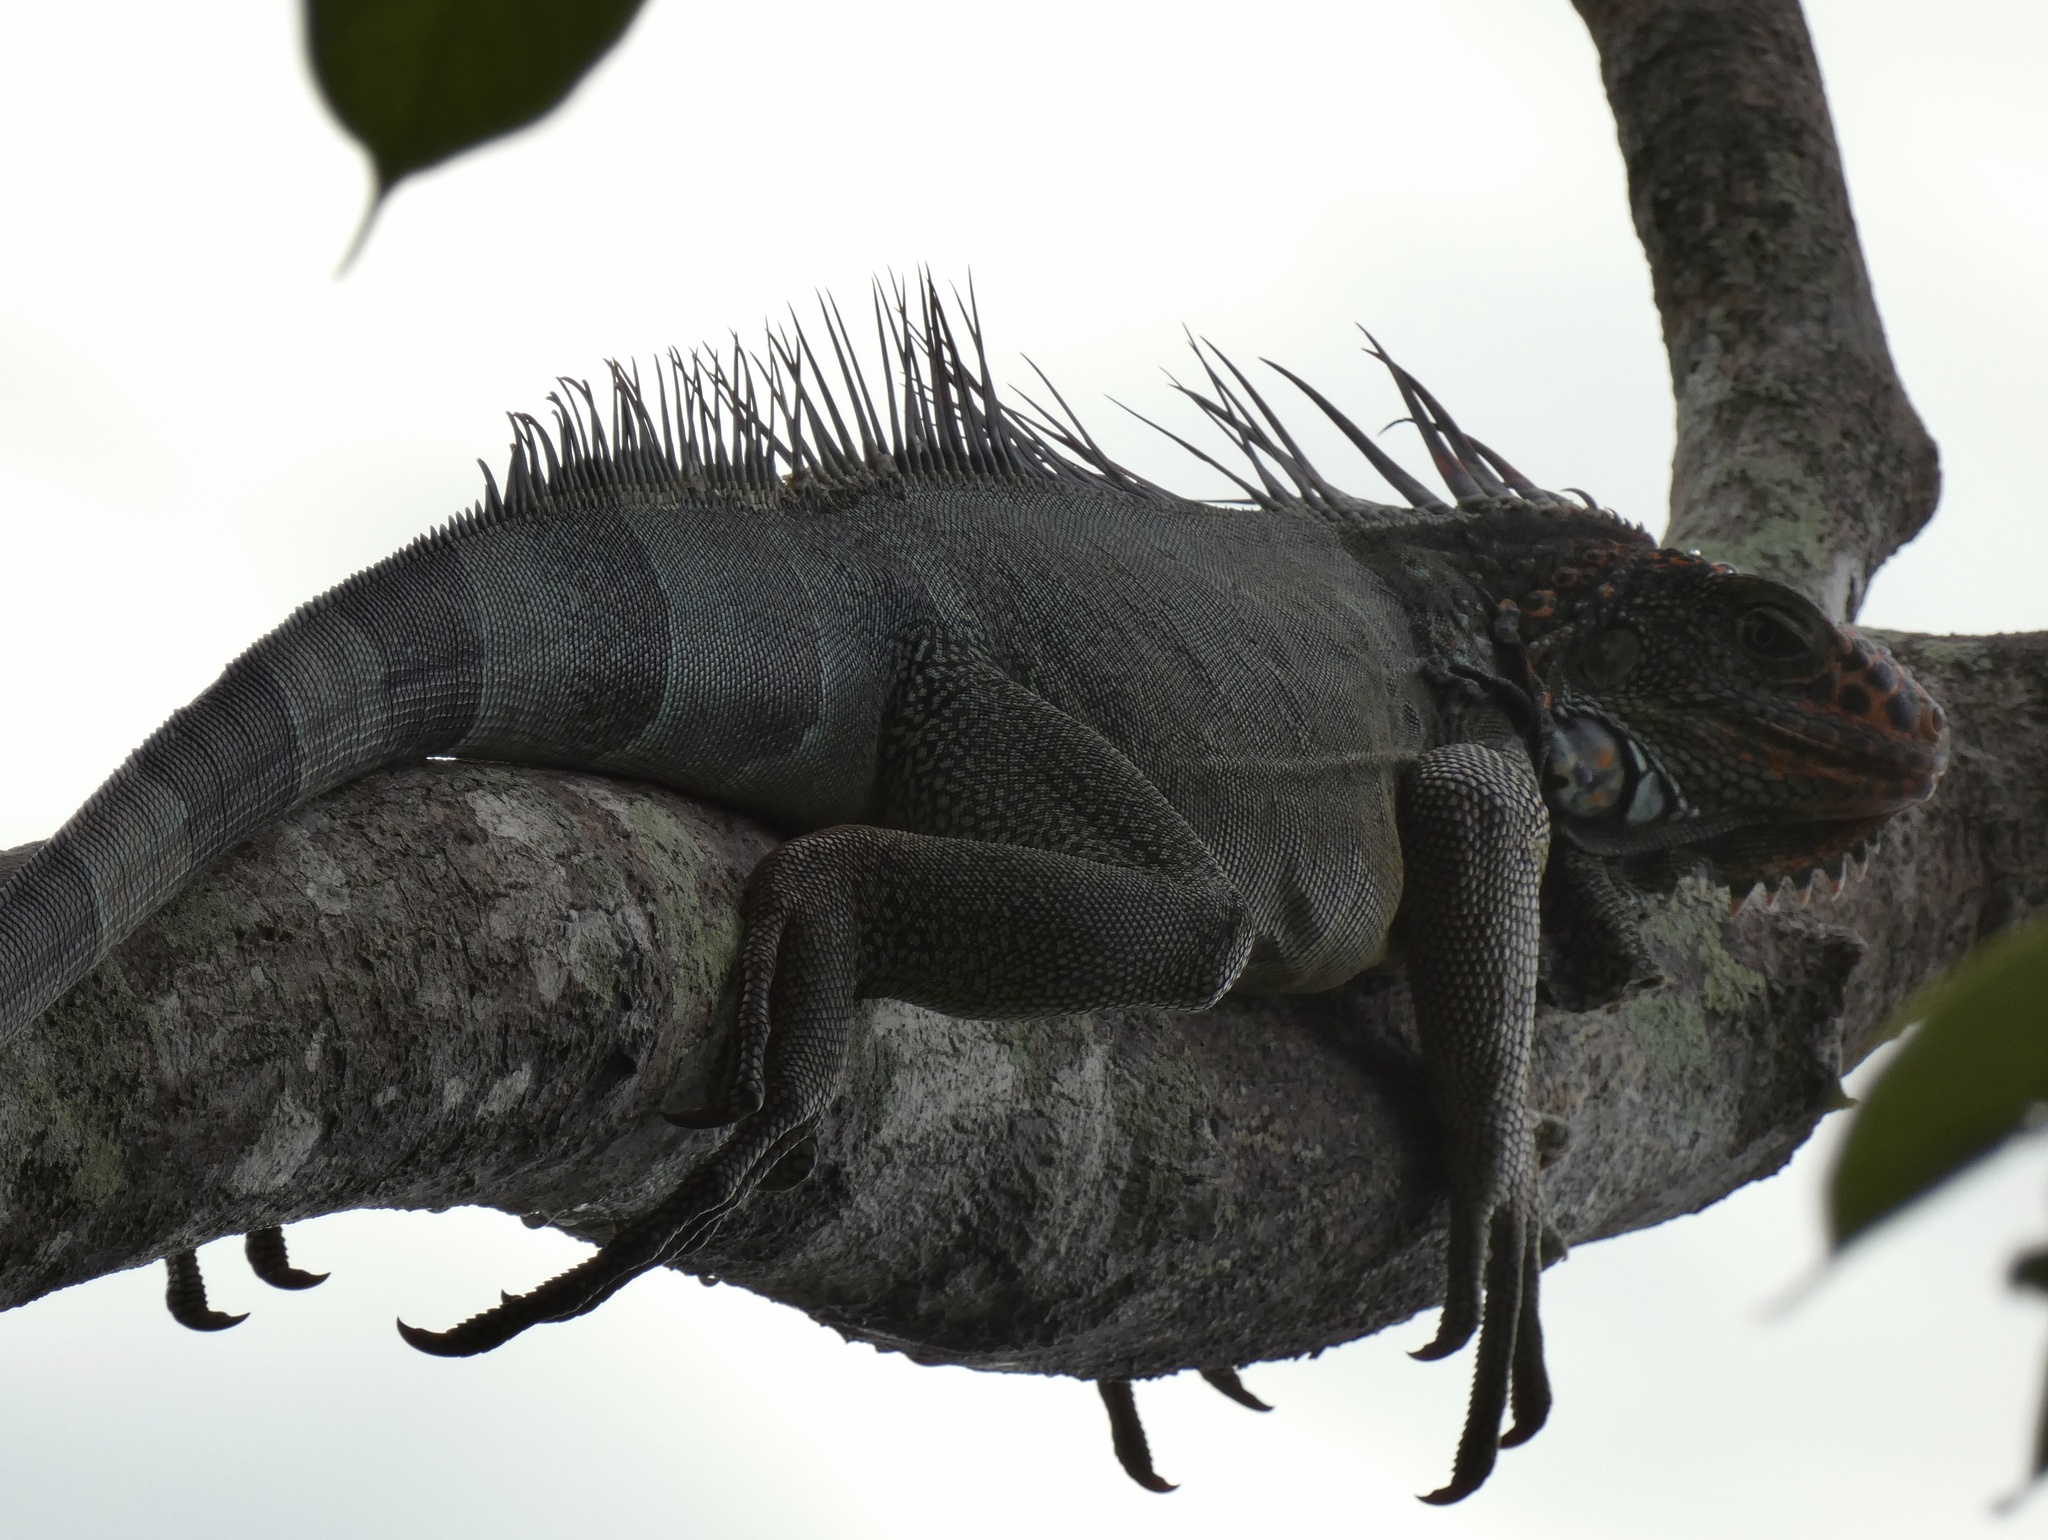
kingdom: Animalia
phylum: Chordata
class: Squamata
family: Iguanidae
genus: Iguana
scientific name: Iguana iguana
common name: Green iguana
